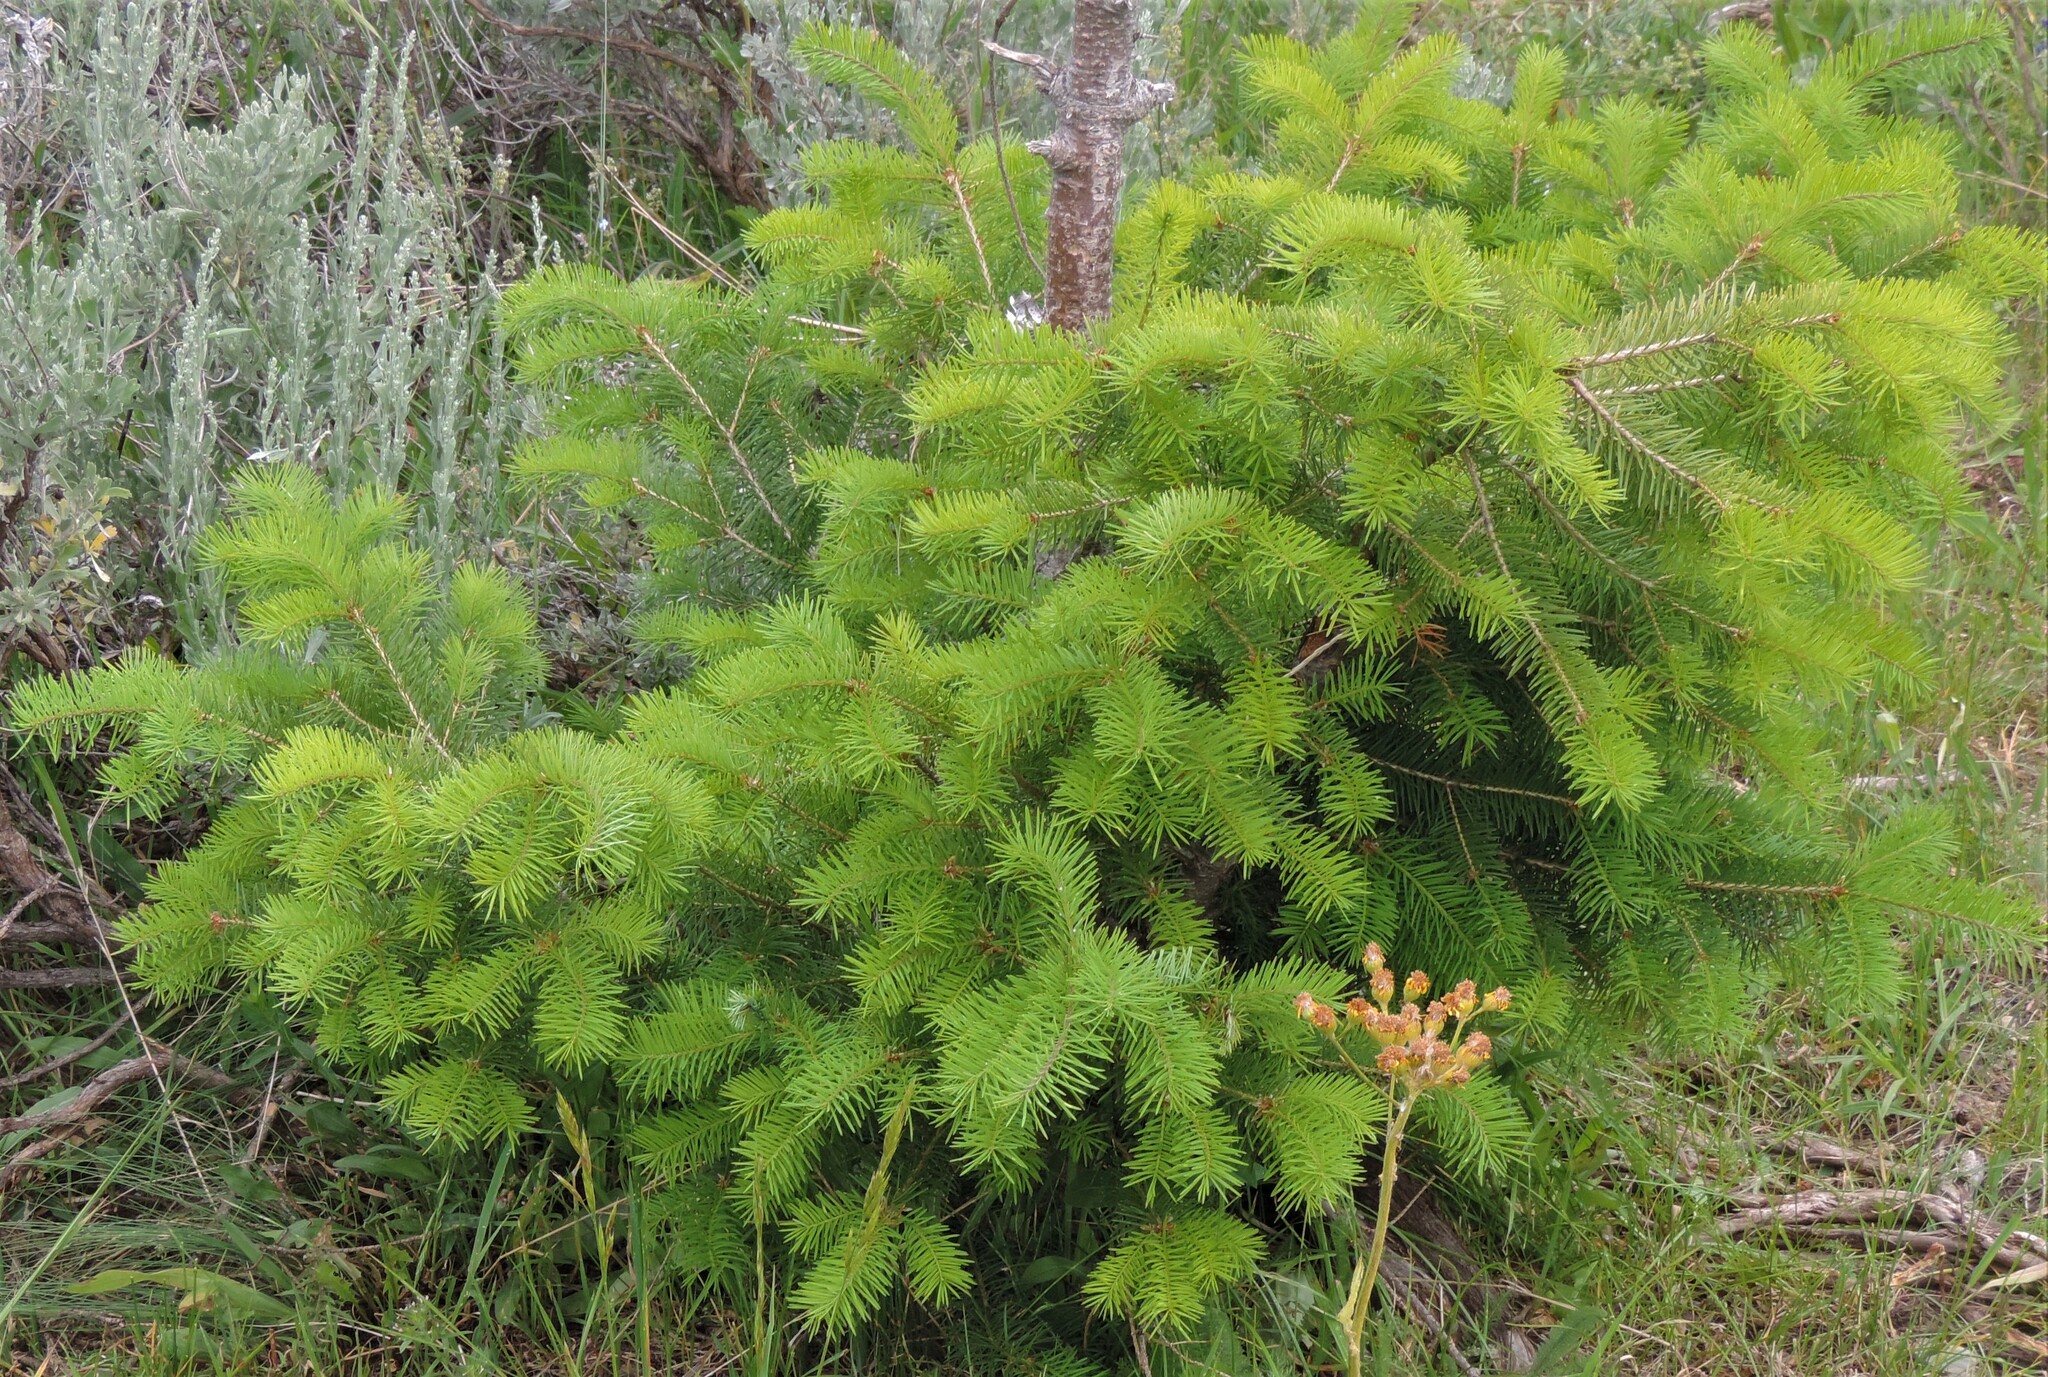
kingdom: Plantae
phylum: Tracheophyta
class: Pinopsida
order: Pinales
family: Pinaceae
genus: Pseudotsuga
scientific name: Pseudotsuga menziesii
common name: Douglas fir
